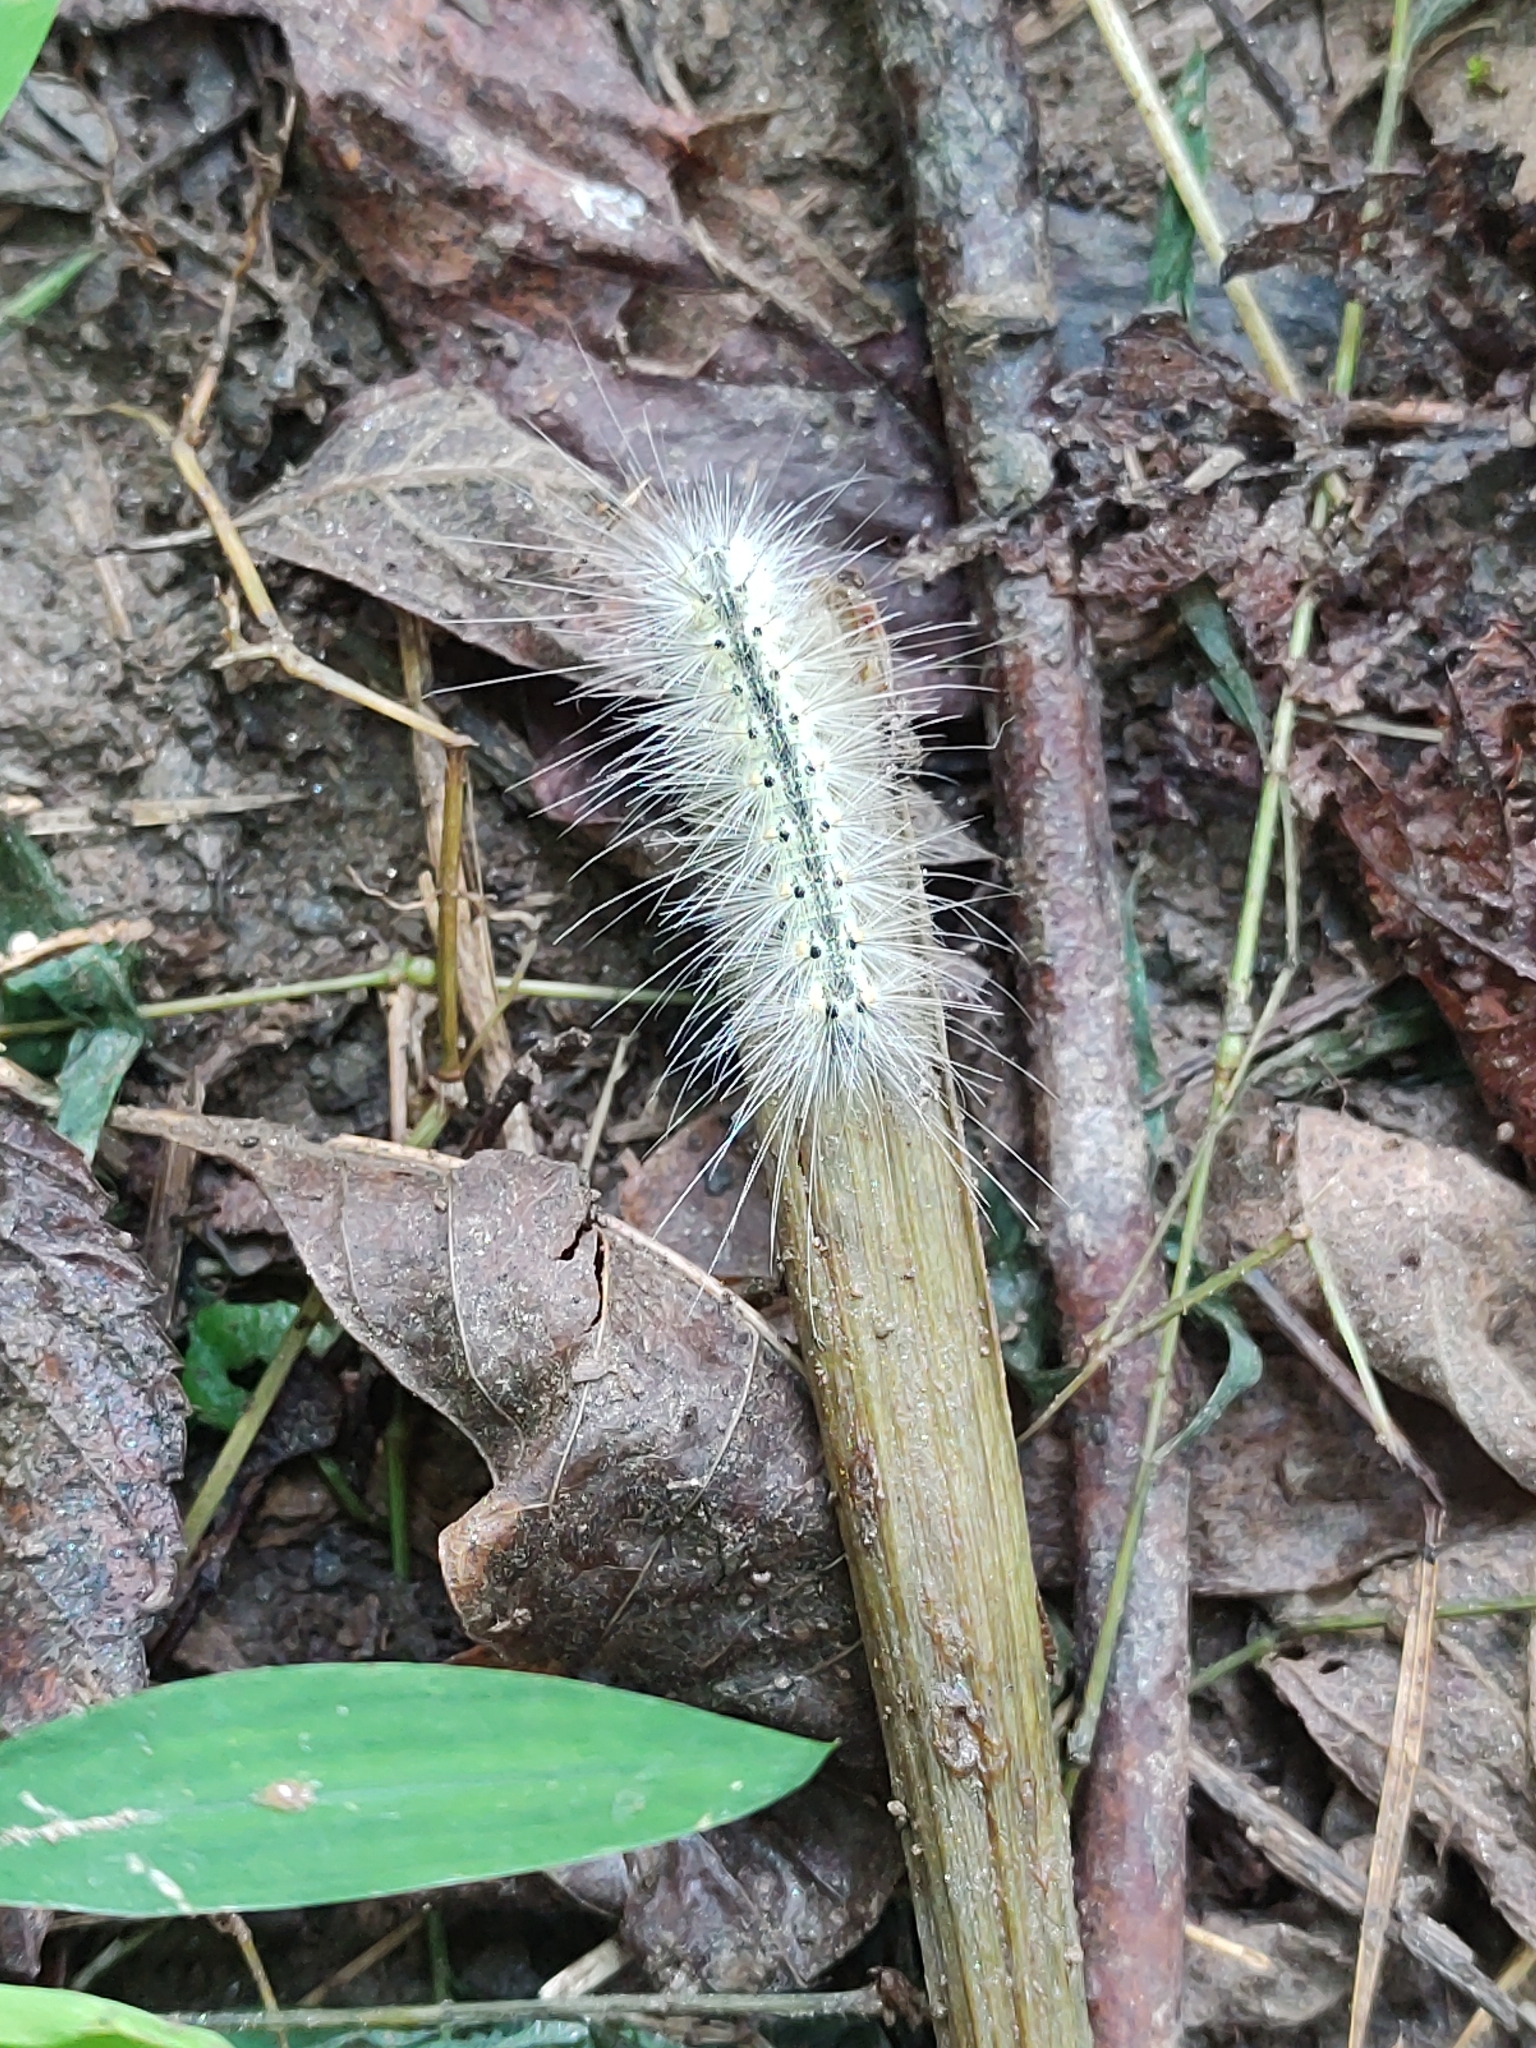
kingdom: Animalia
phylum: Arthropoda
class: Insecta
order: Lepidoptera
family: Erebidae
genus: Hyphantria
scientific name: Hyphantria cunea
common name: American white moth
